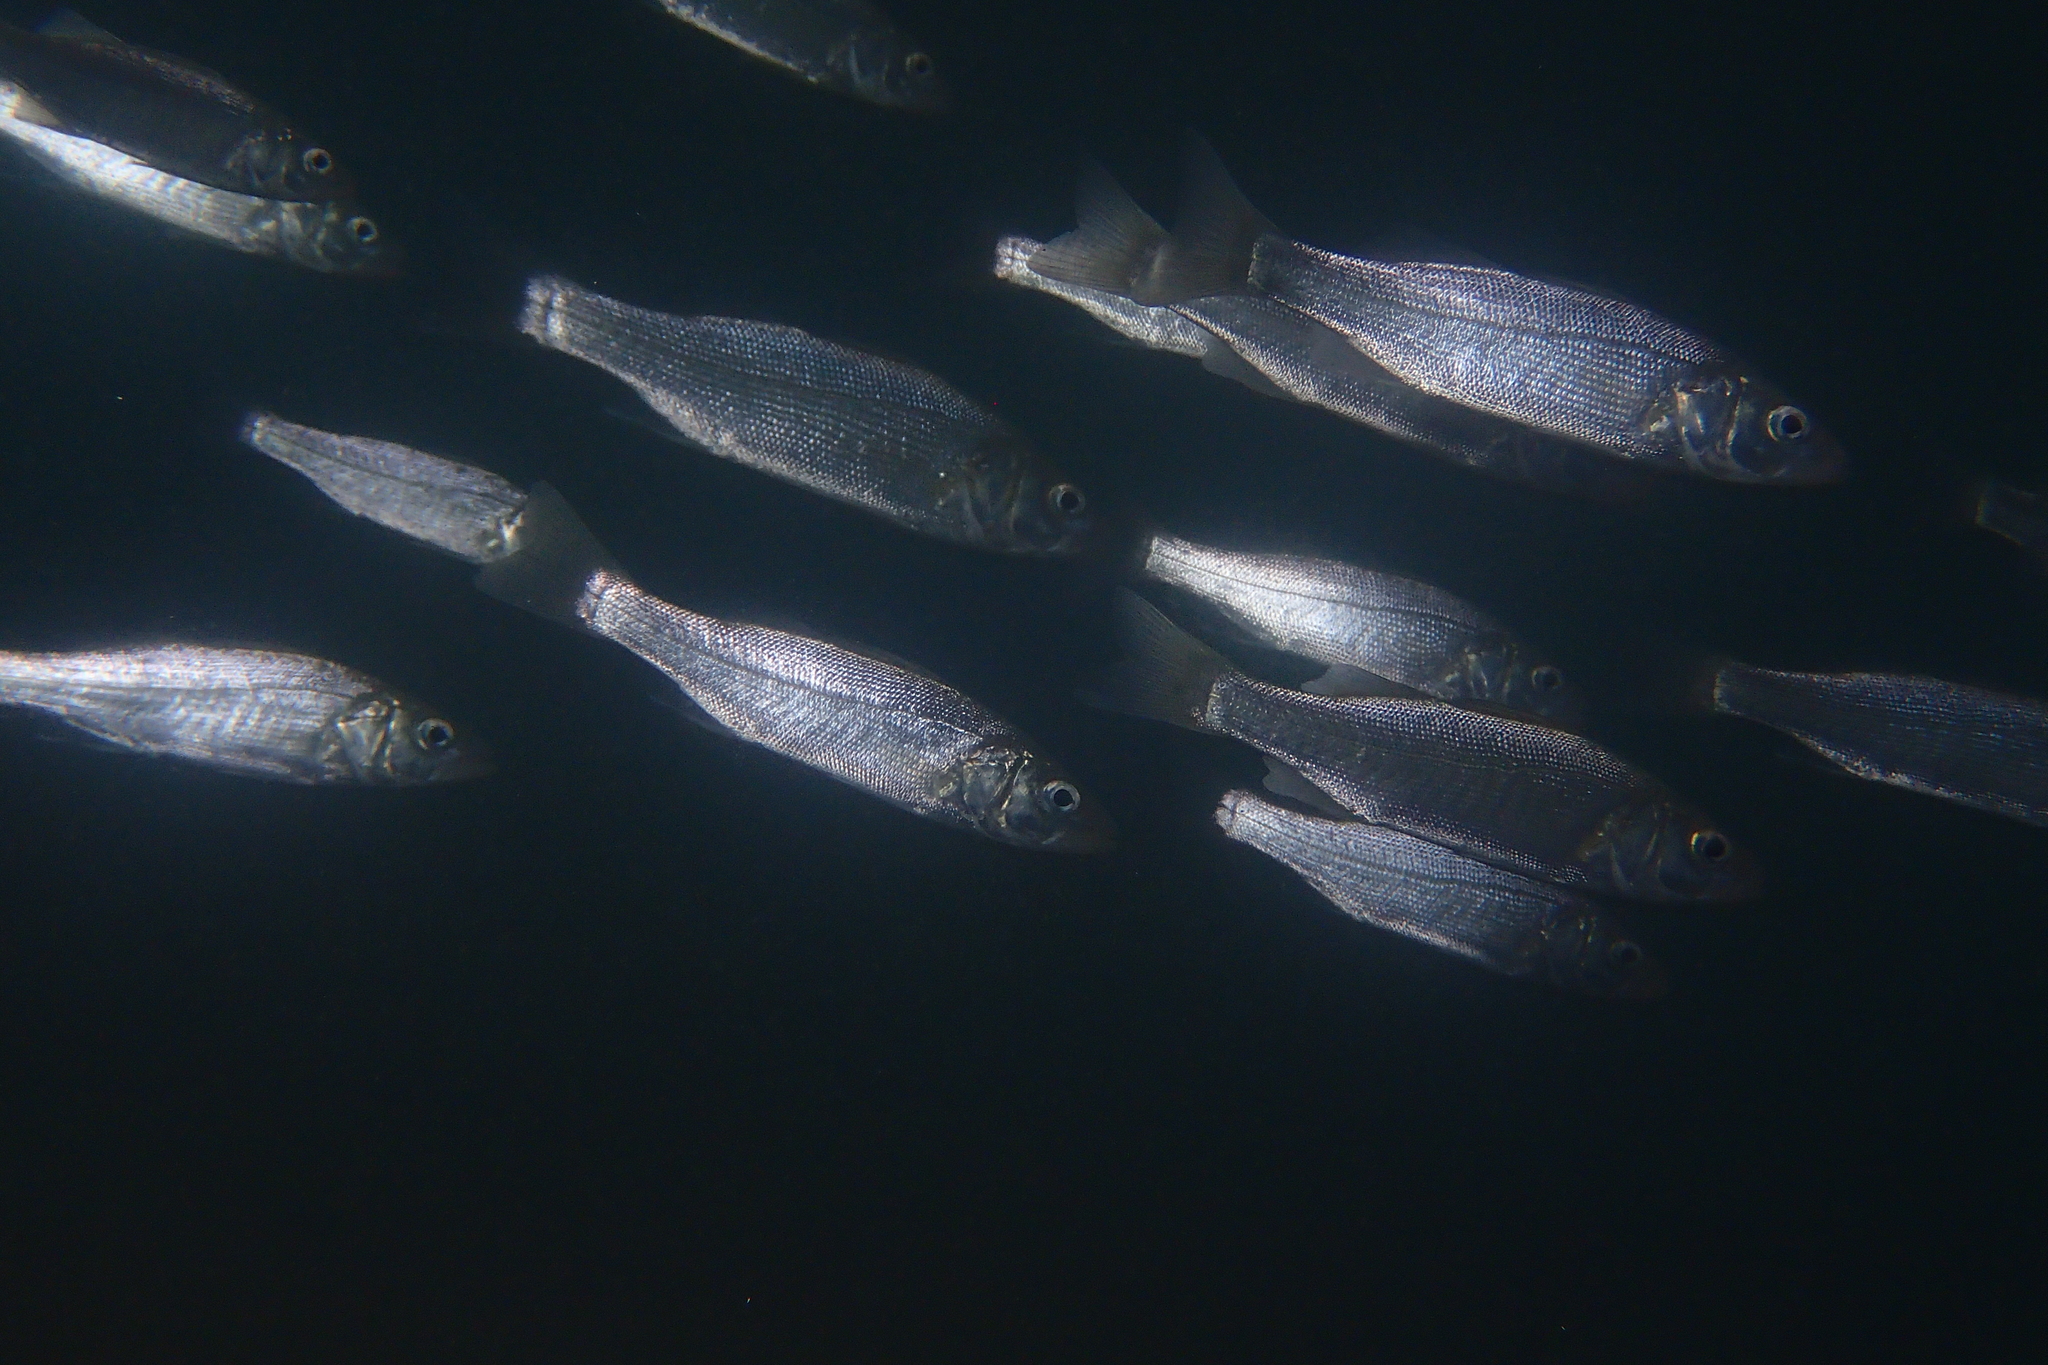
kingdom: Animalia
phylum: Chordata
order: Perciformes
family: Moronidae
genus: Dicentrarchus
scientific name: Dicentrarchus labrax
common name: European seabass
